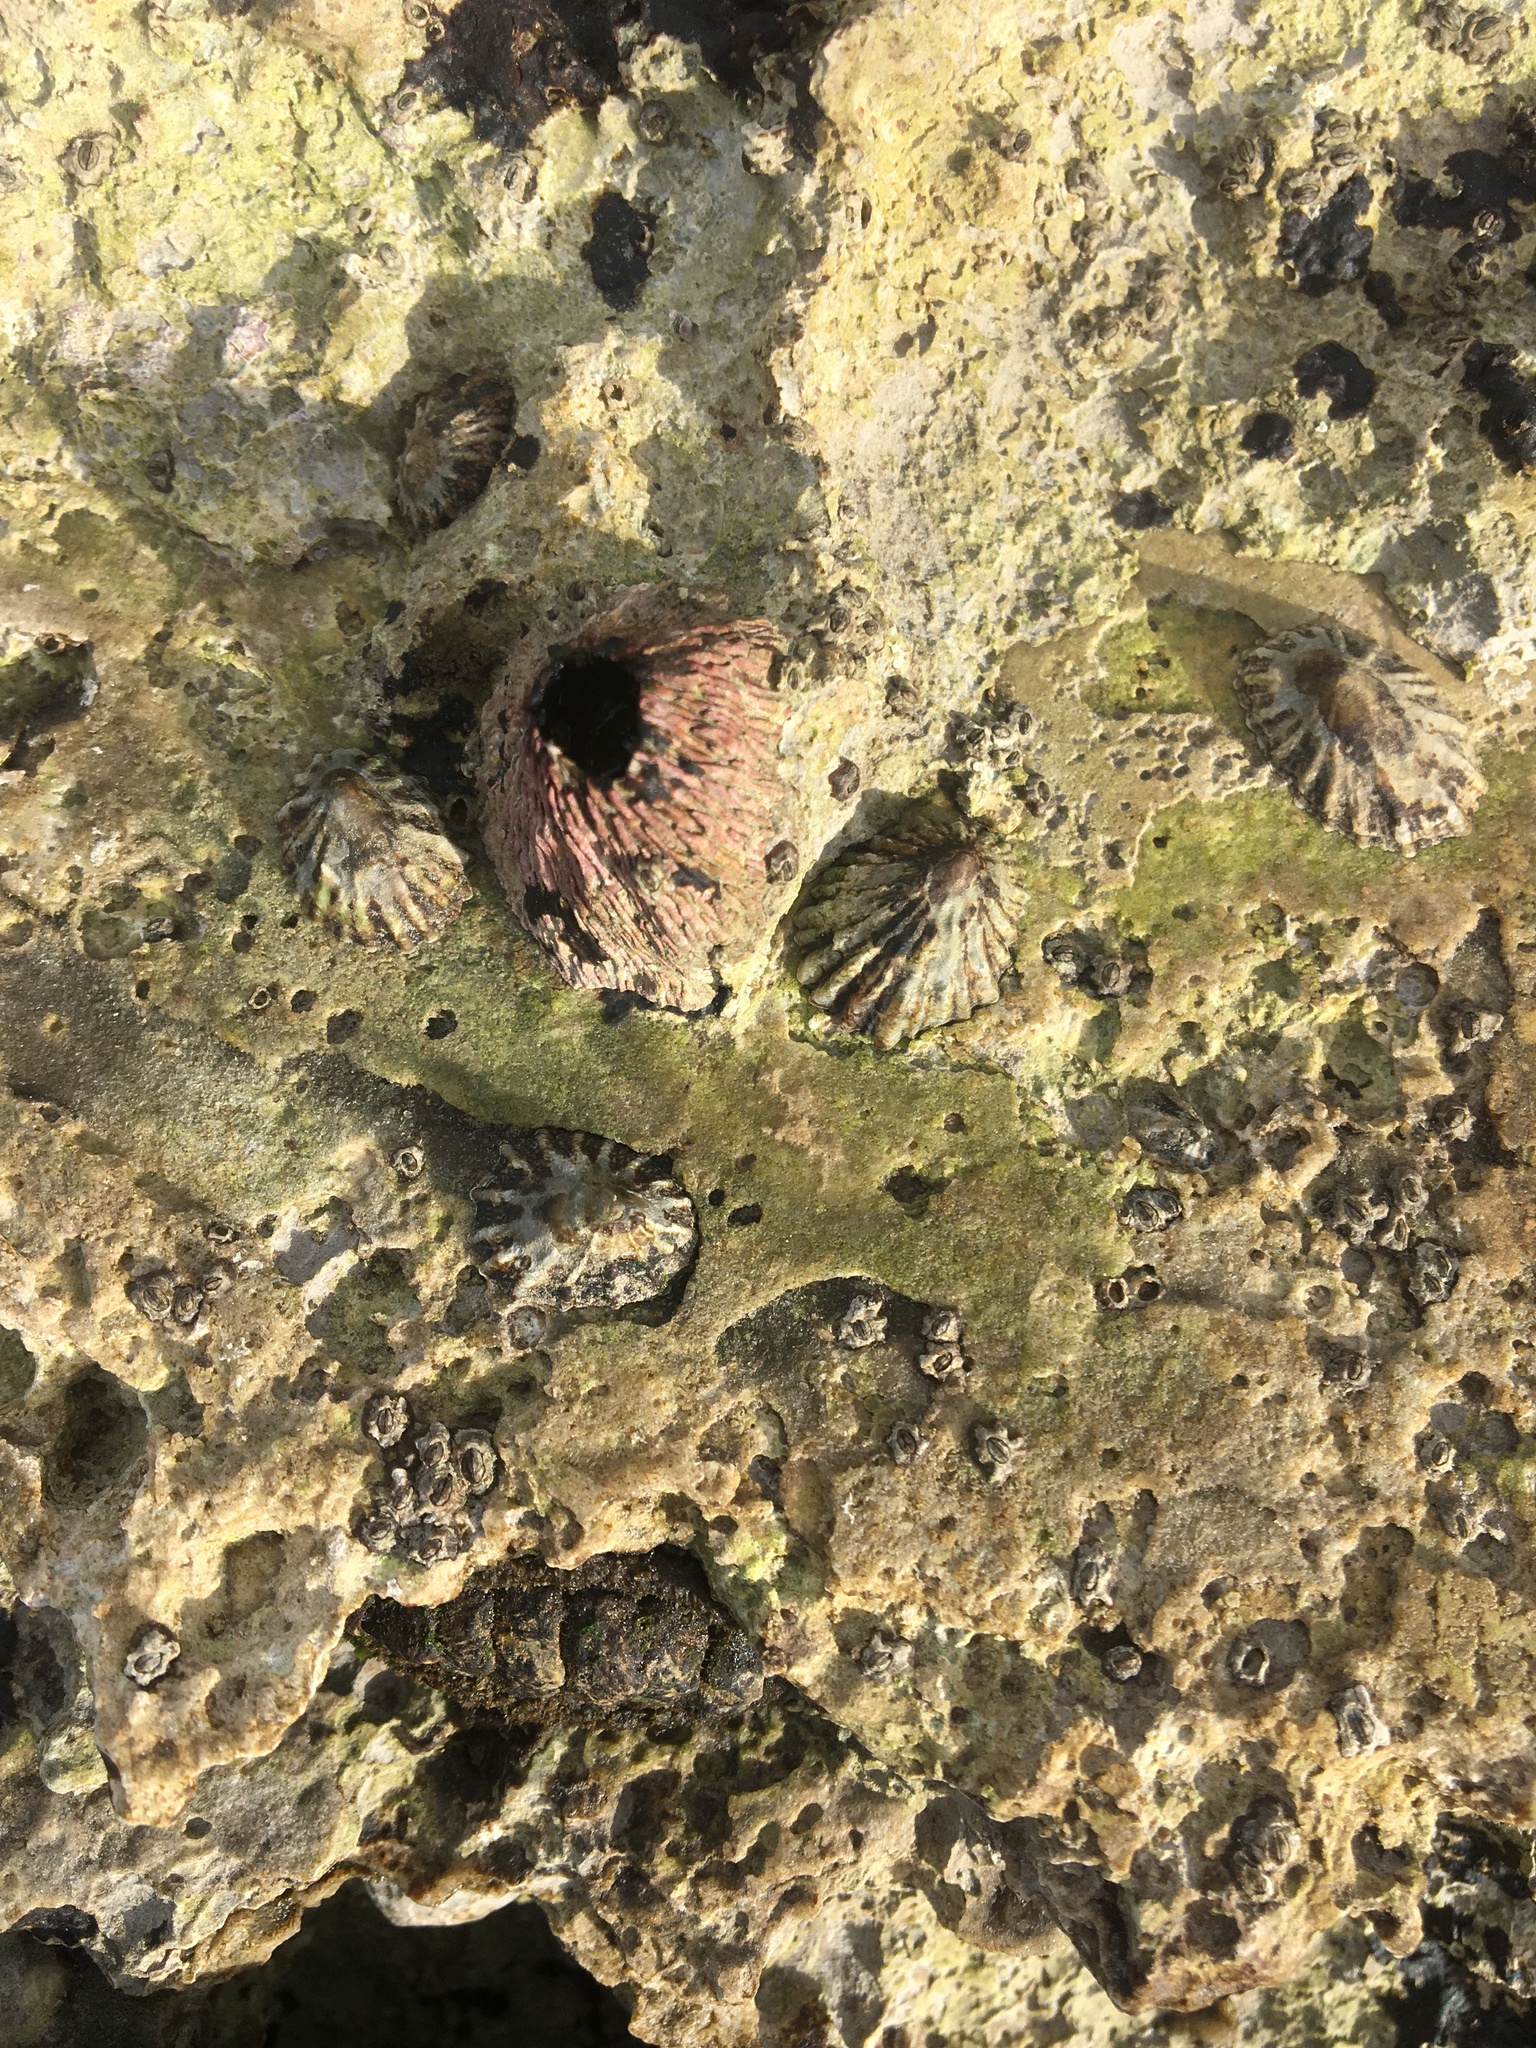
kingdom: Animalia
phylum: Arthropoda
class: Maxillopoda
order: Sessilia
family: Tetraclitidae
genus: Tetraclita
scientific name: Tetraclita rubescens
